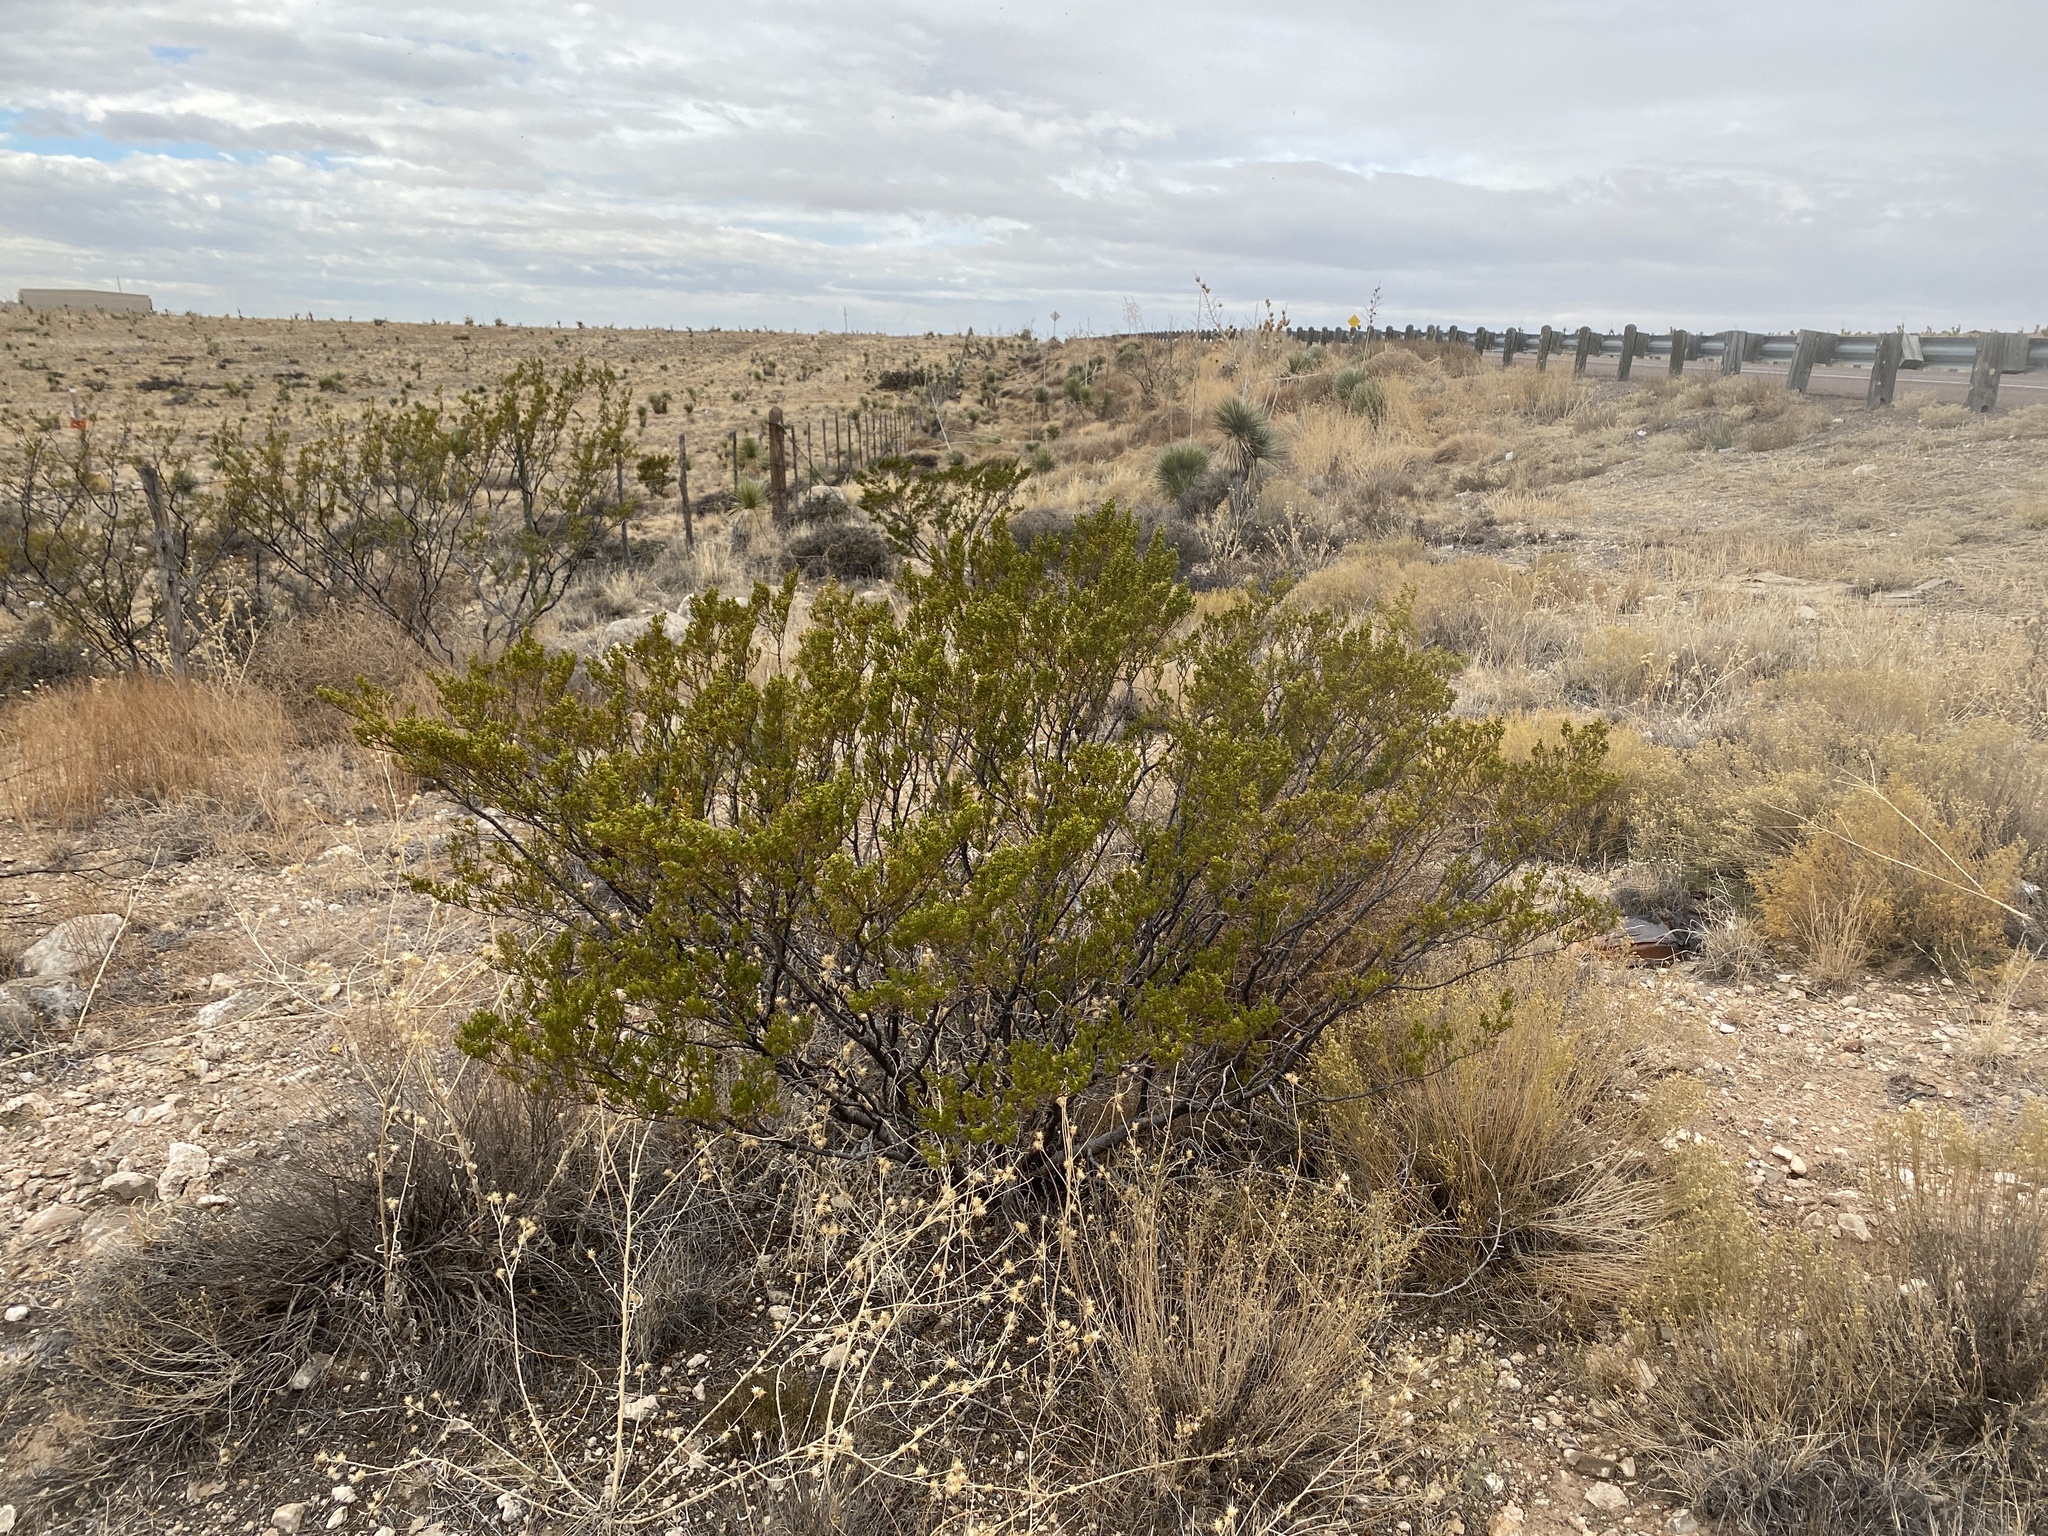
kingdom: Plantae
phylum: Tracheophyta
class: Magnoliopsida
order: Zygophyllales
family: Zygophyllaceae
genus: Larrea
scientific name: Larrea tridentata
